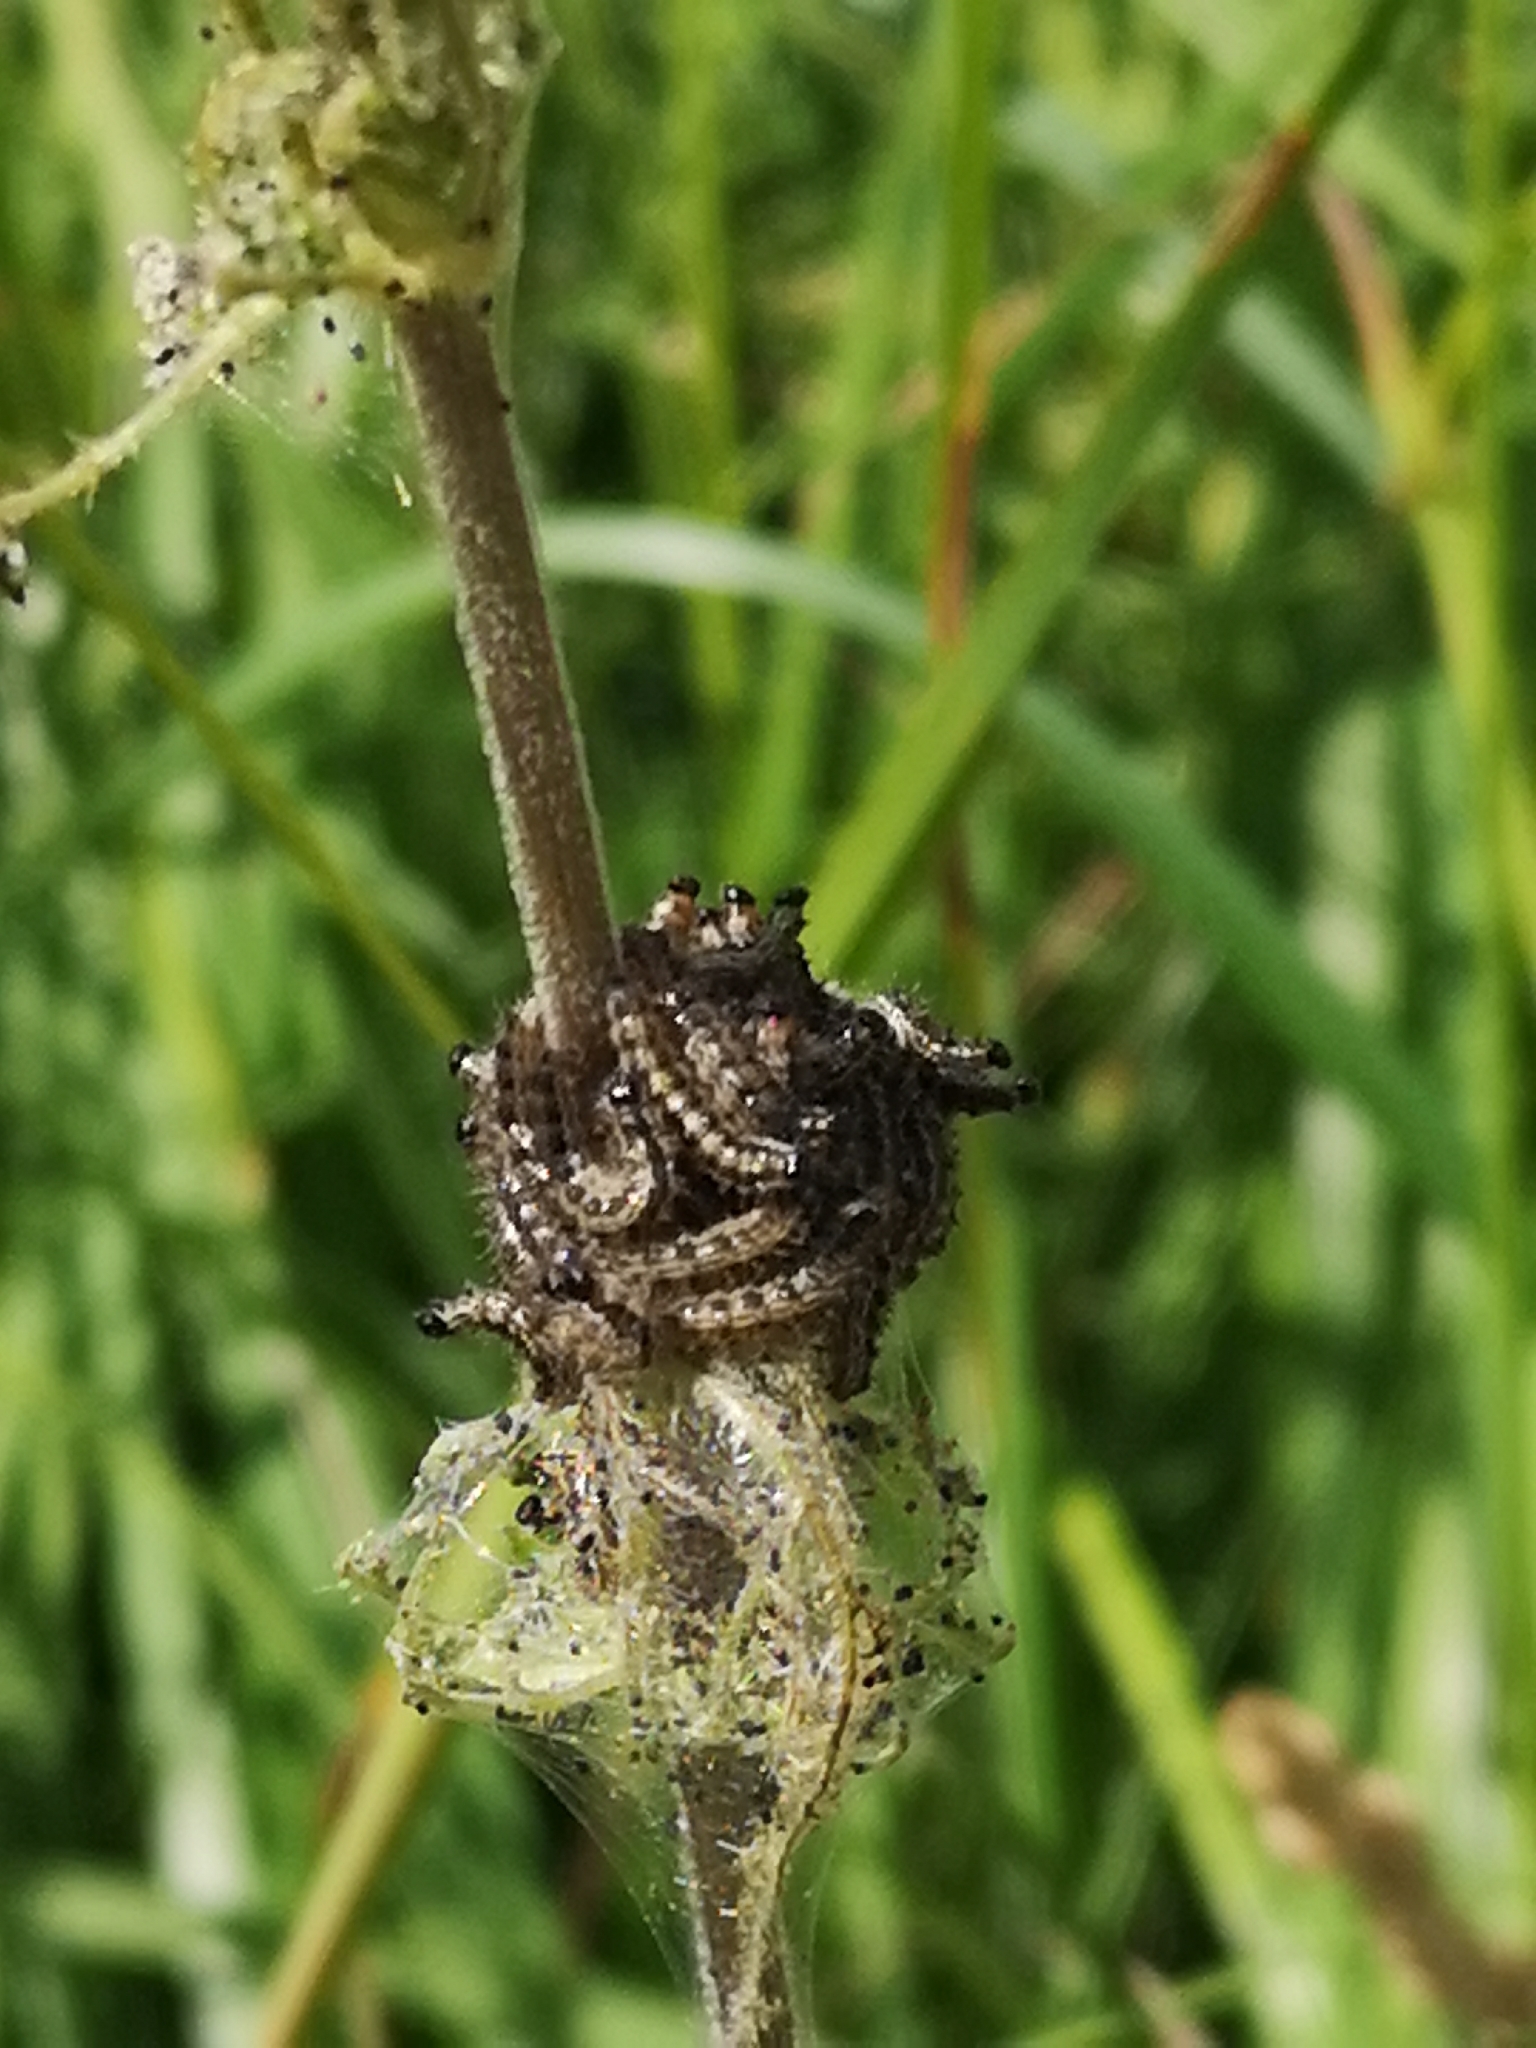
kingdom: Animalia
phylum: Arthropoda
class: Insecta
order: Lepidoptera
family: Nymphalidae
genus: Aglais
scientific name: Aglais urticae
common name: Small tortoiseshell
